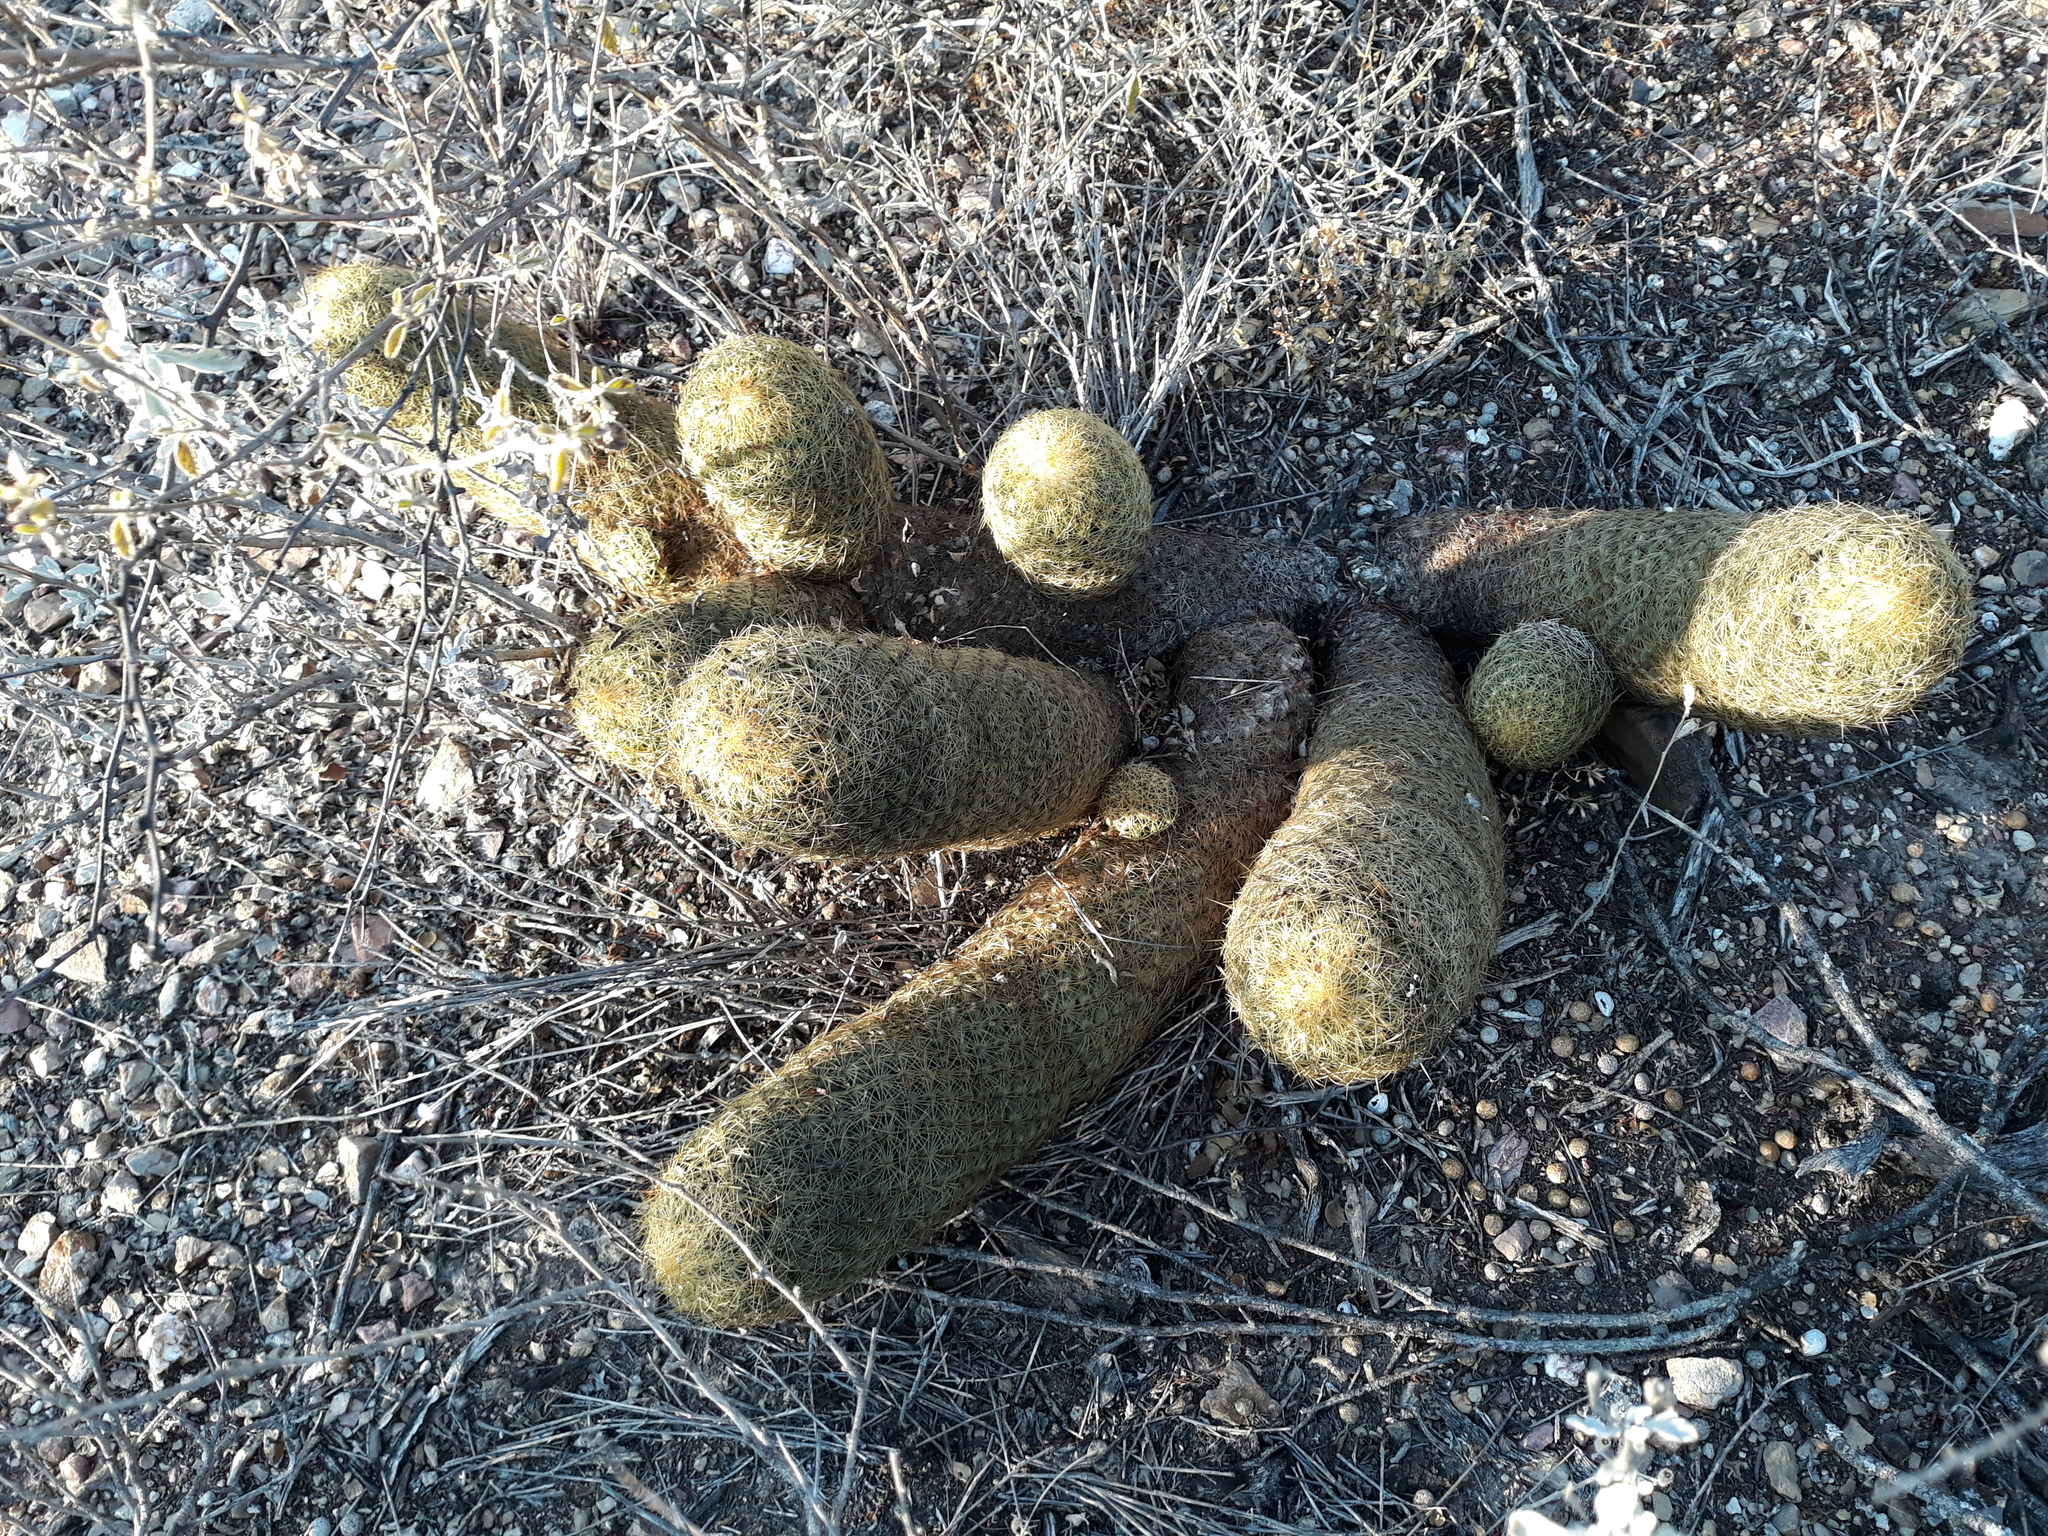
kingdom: Plantae
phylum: Tracheophyta
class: Magnoliopsida
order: Caryophyllales
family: Cactaceae
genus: Coryphantha
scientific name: Coryphantha erecta
